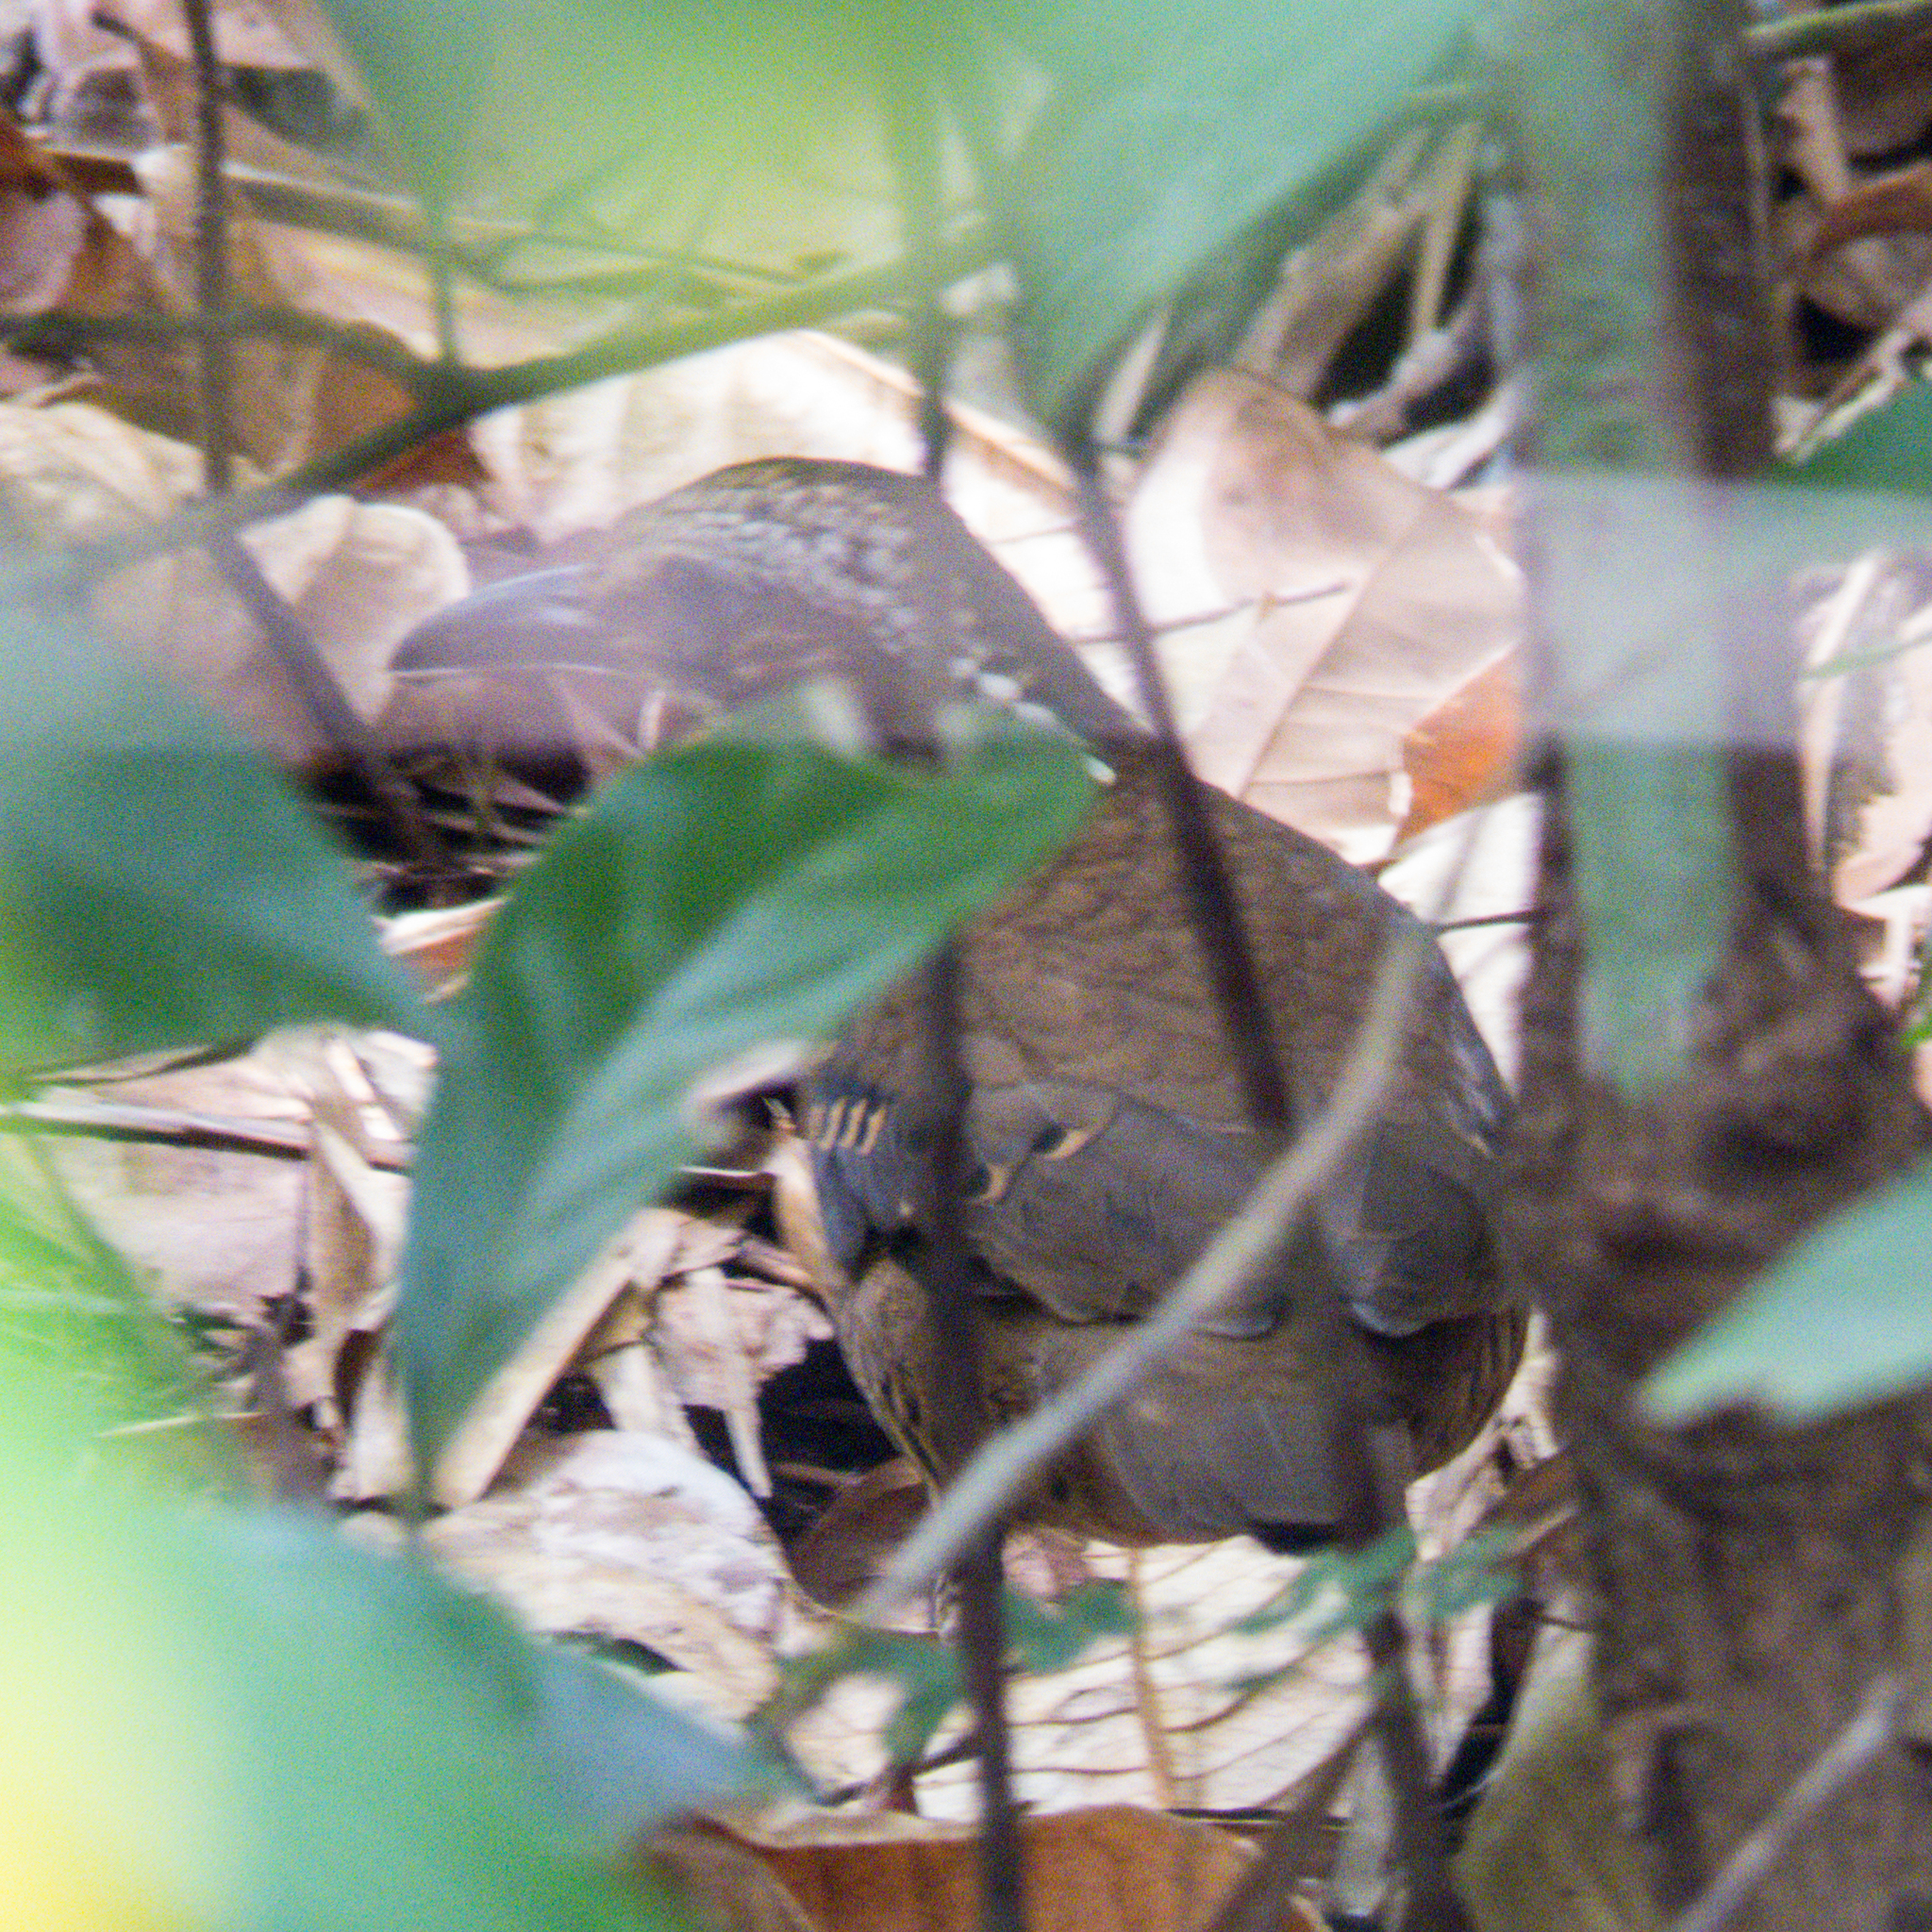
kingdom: Animalia
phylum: Chordata
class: Aves
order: Passeriformes
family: Pittidae
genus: Anthocincla
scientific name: Anthocincla phayrei
